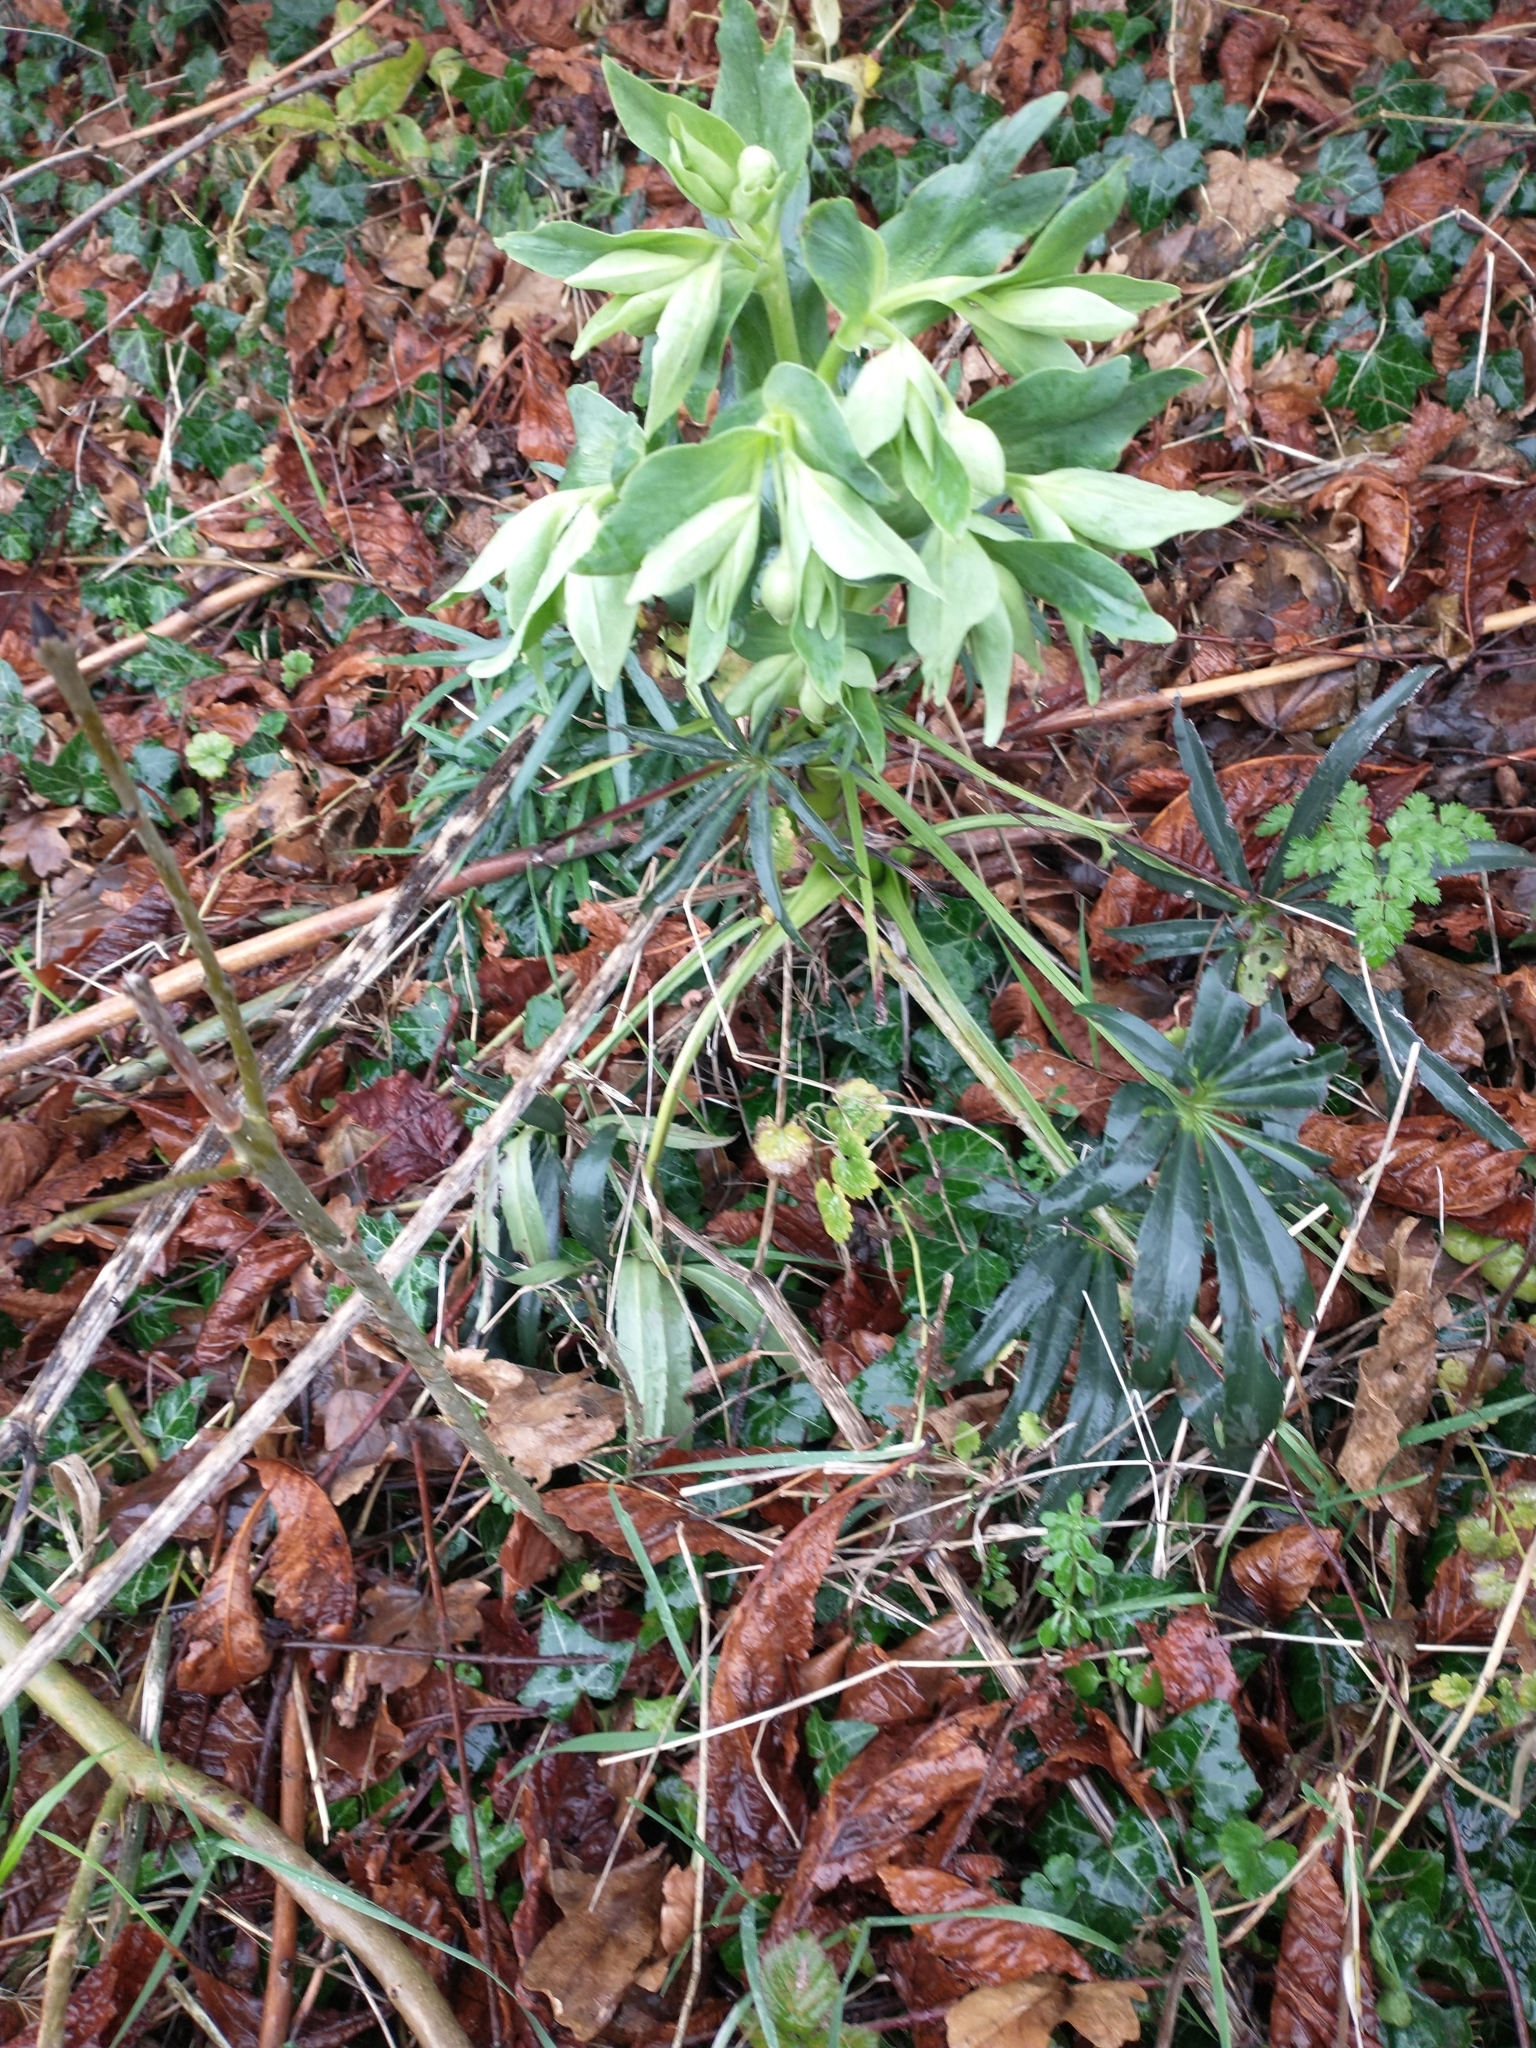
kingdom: Plantae
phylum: Tracheophyta
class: Magnoliopsida
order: Ranunculales
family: Ranunculaceae
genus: Helleborus
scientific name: Helleborus foetidus
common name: Stinking hellebore
